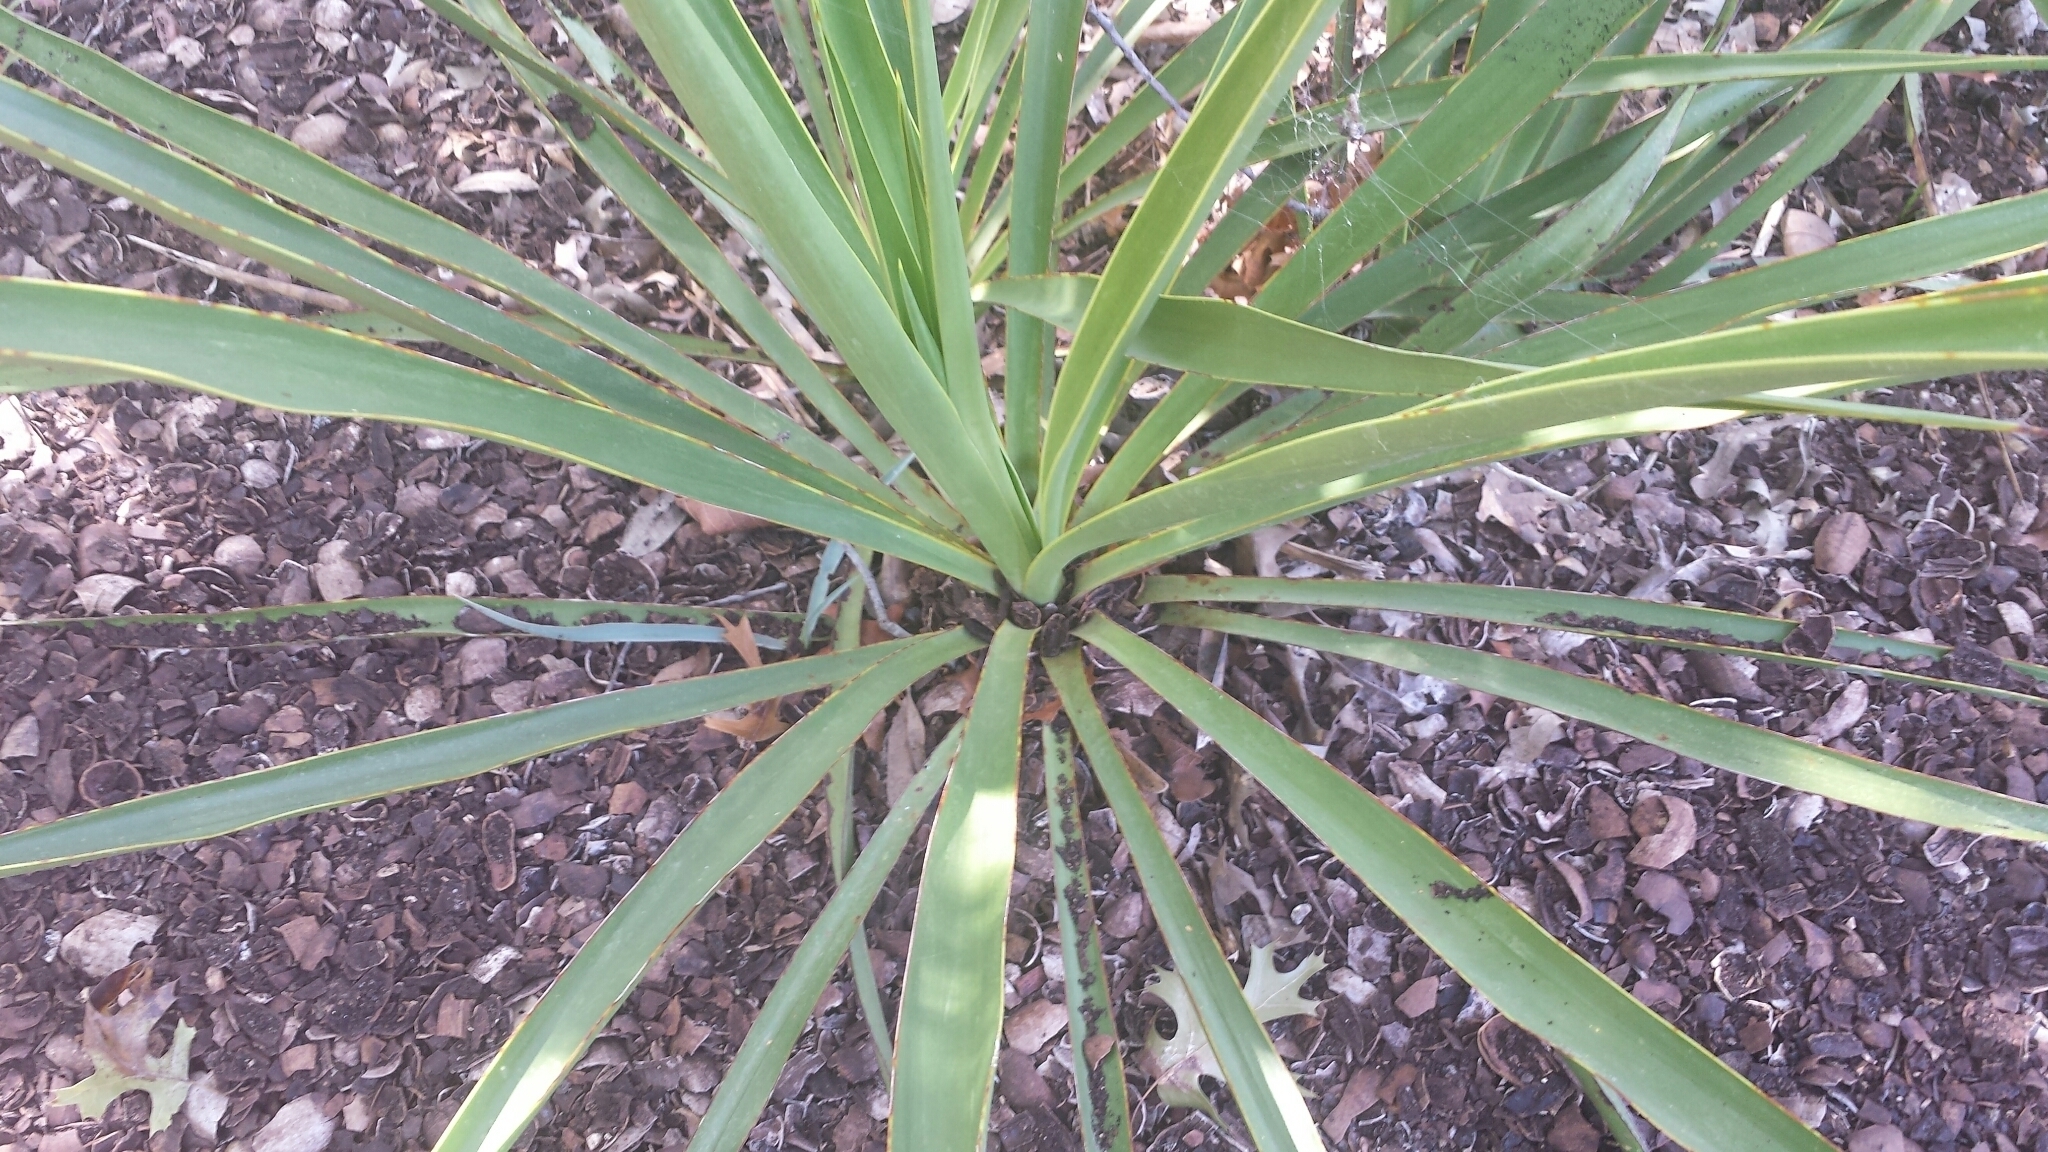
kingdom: Plantae
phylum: Tracheophyta
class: Liliopsida
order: Asparagales
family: Asparagaceae
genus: Yucca
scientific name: Yucca rupicola
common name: Twisted-leaf spanish-dagger
